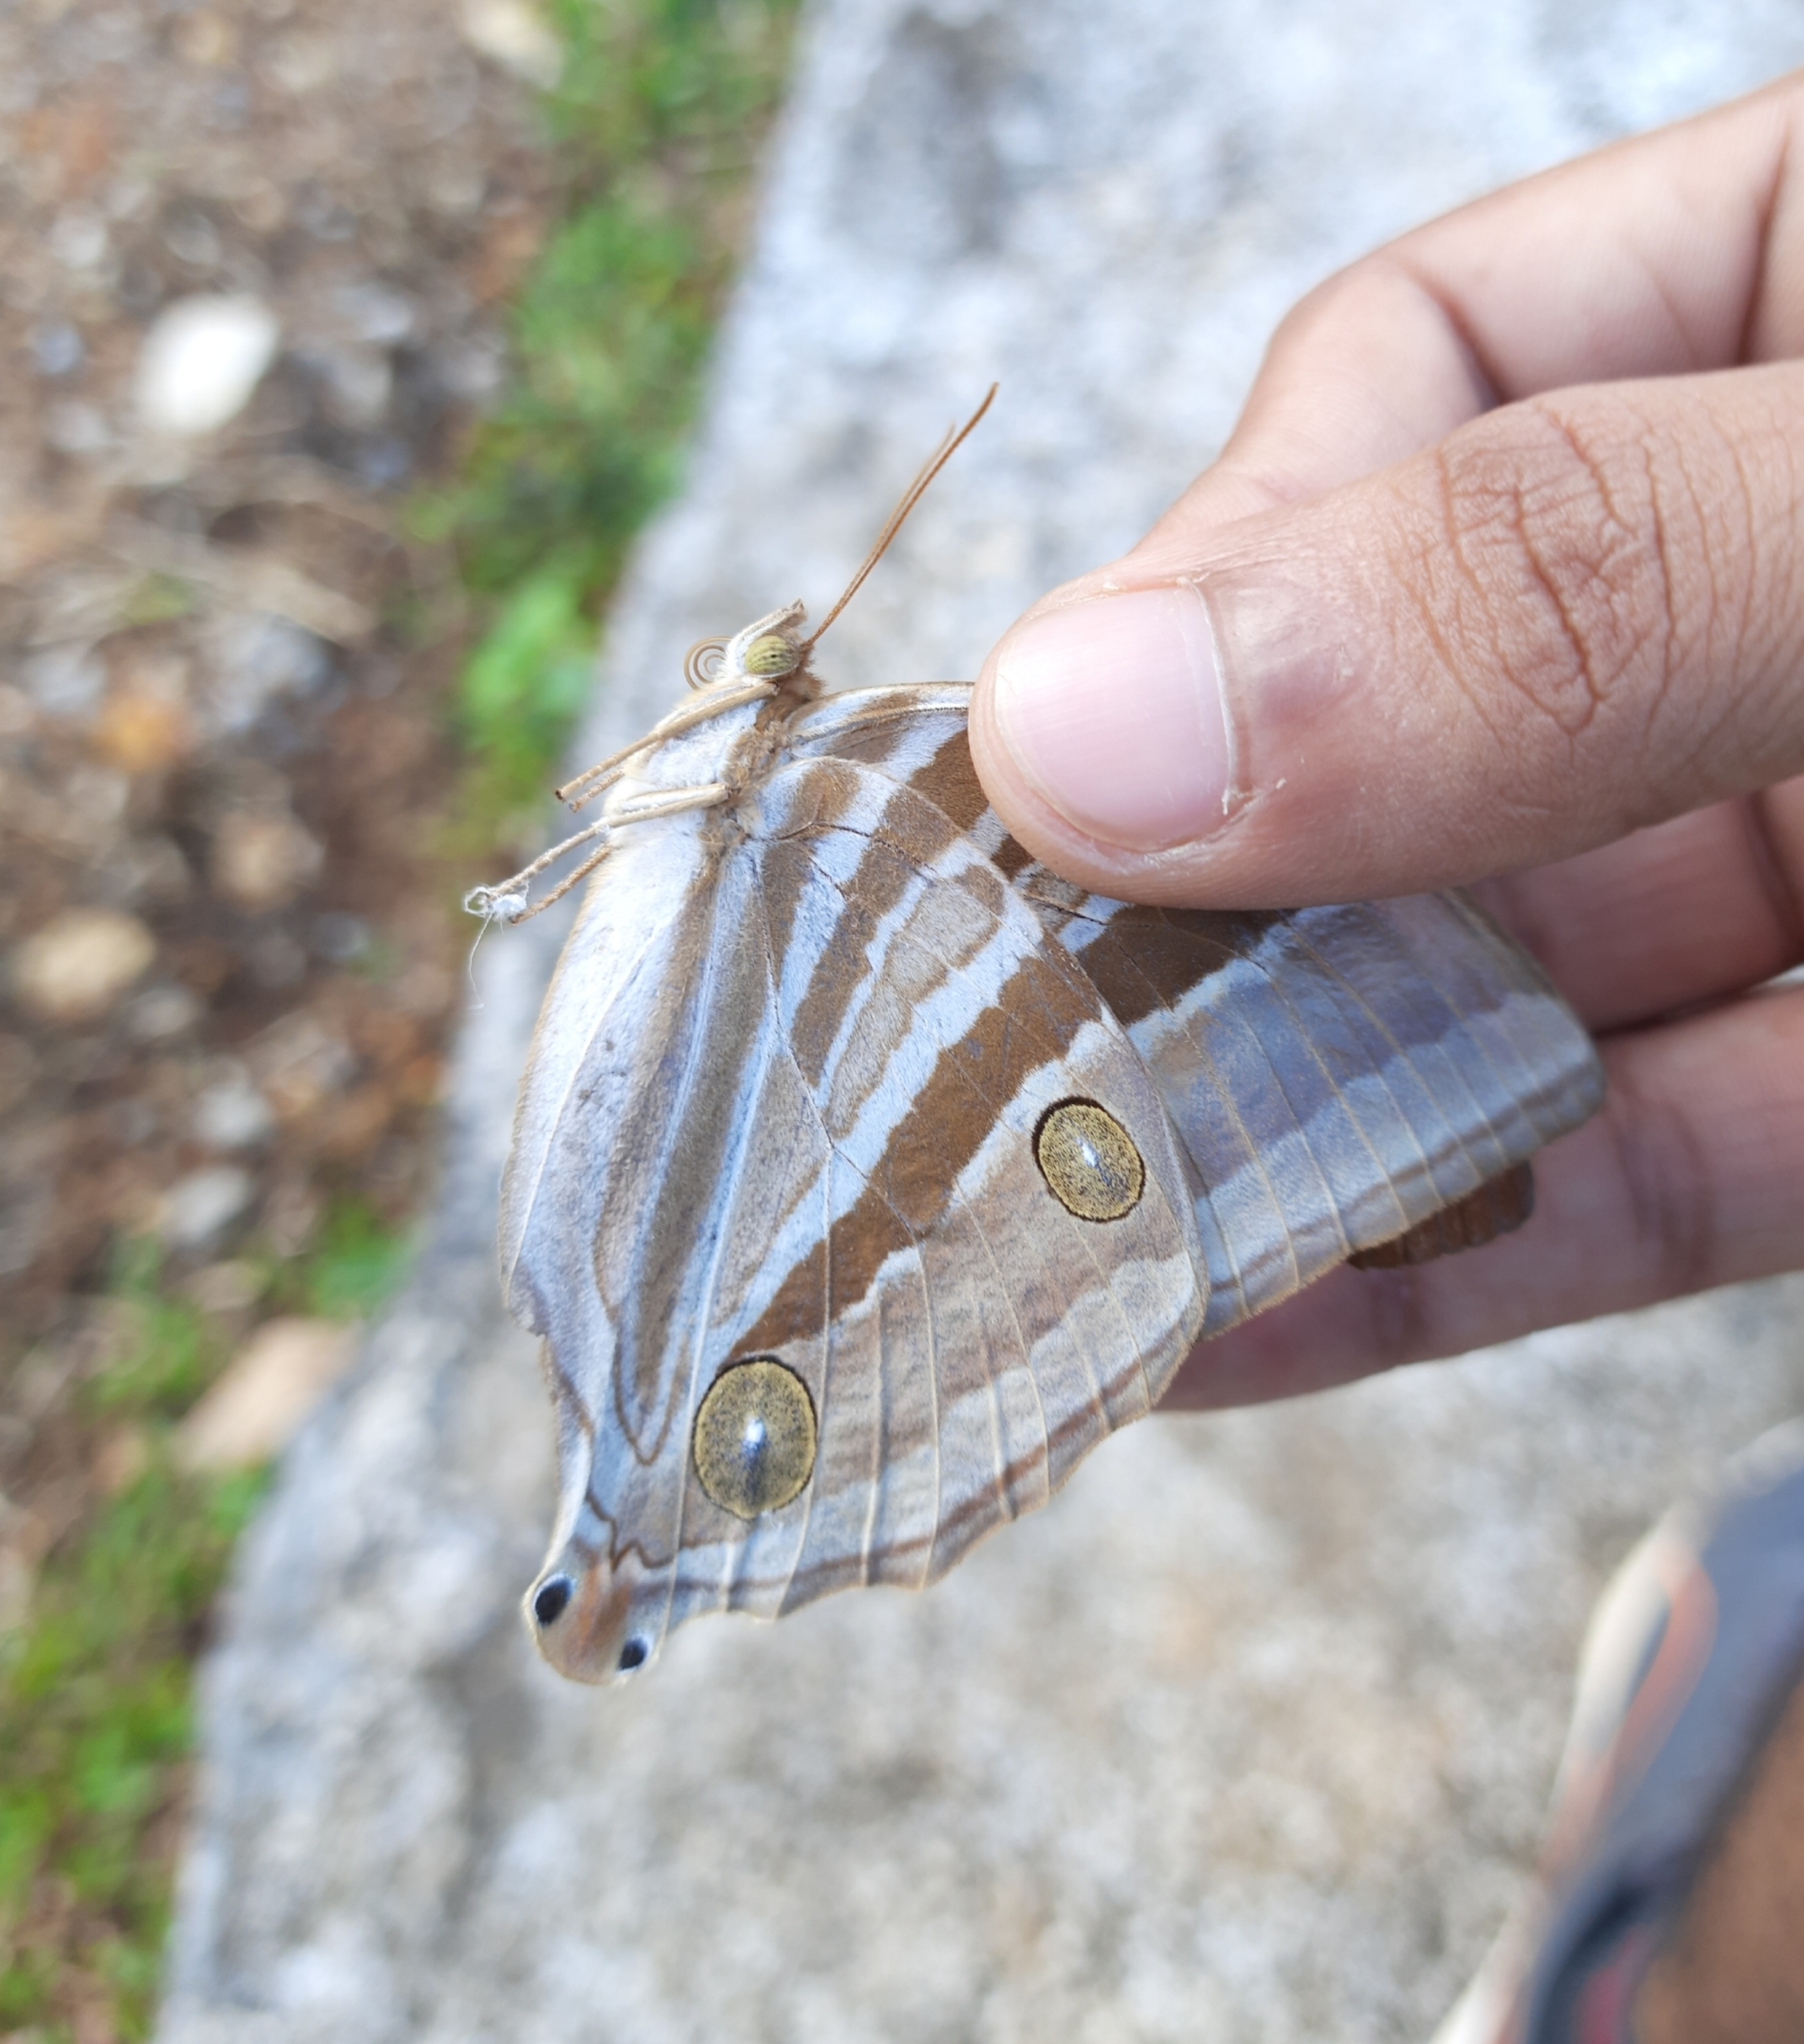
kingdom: Animalia
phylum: Arthropoda
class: Insecta
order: Lepidoptera
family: Nymphalidae
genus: Amathusia
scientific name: Amathusia phidippus
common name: Palm king
